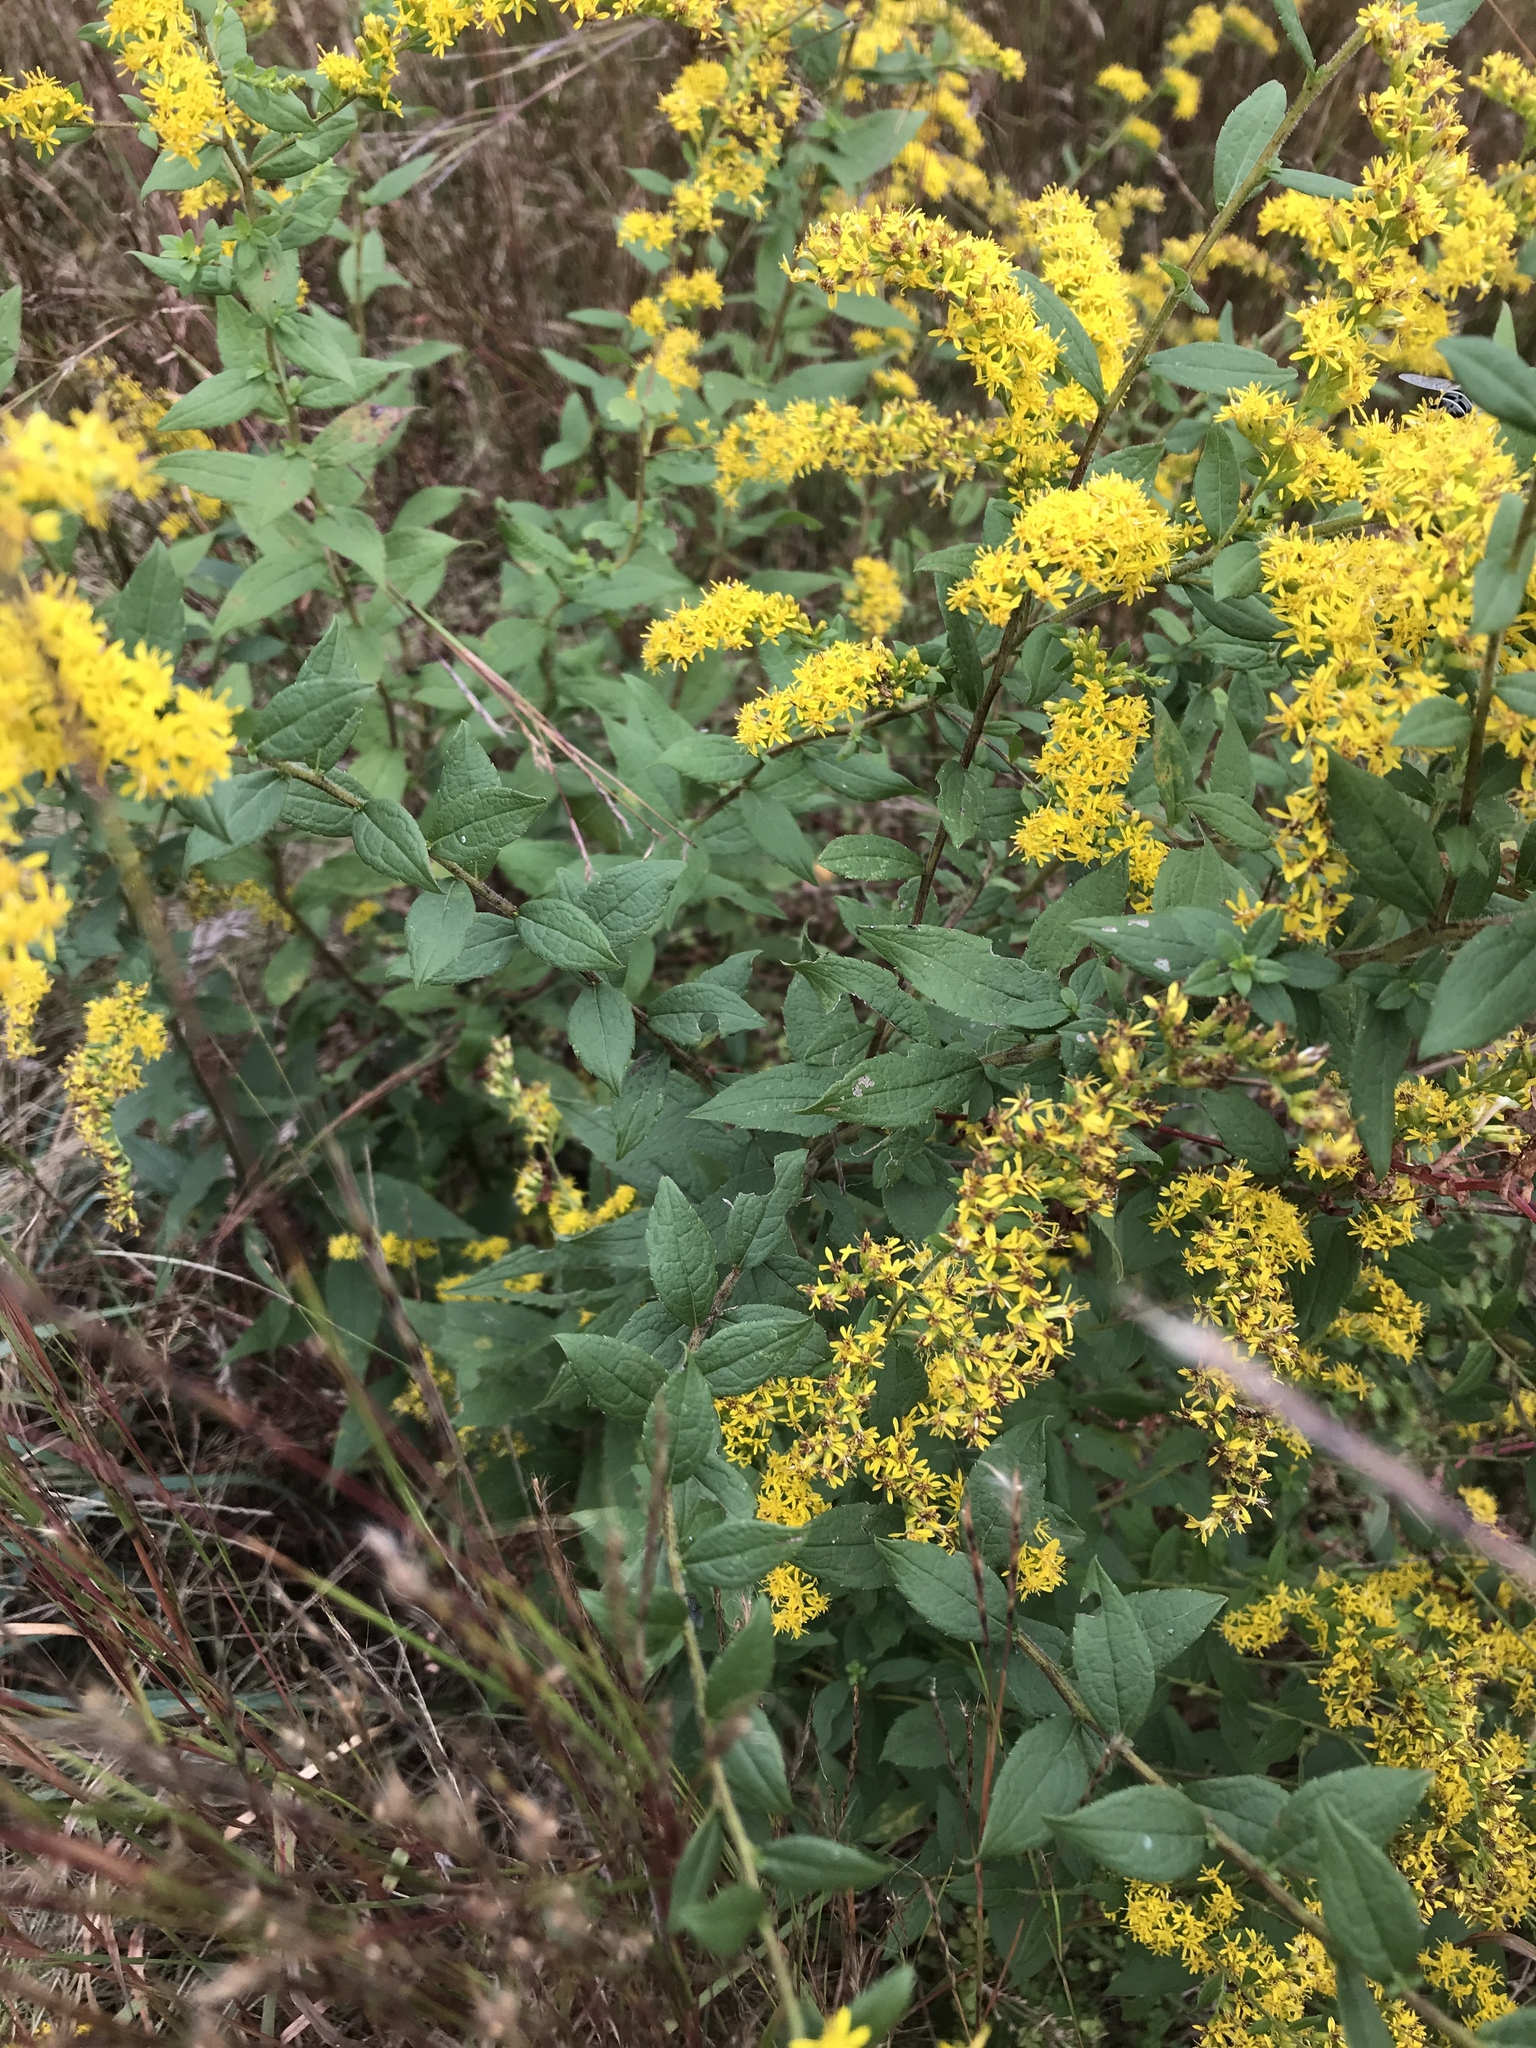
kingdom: Plantae
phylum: Tracheophyta
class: Magnoliopsida
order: Asterales
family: Asteraceae
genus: Solidago
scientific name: Solidago rugosa
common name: Rough-stemmed goldenrod
